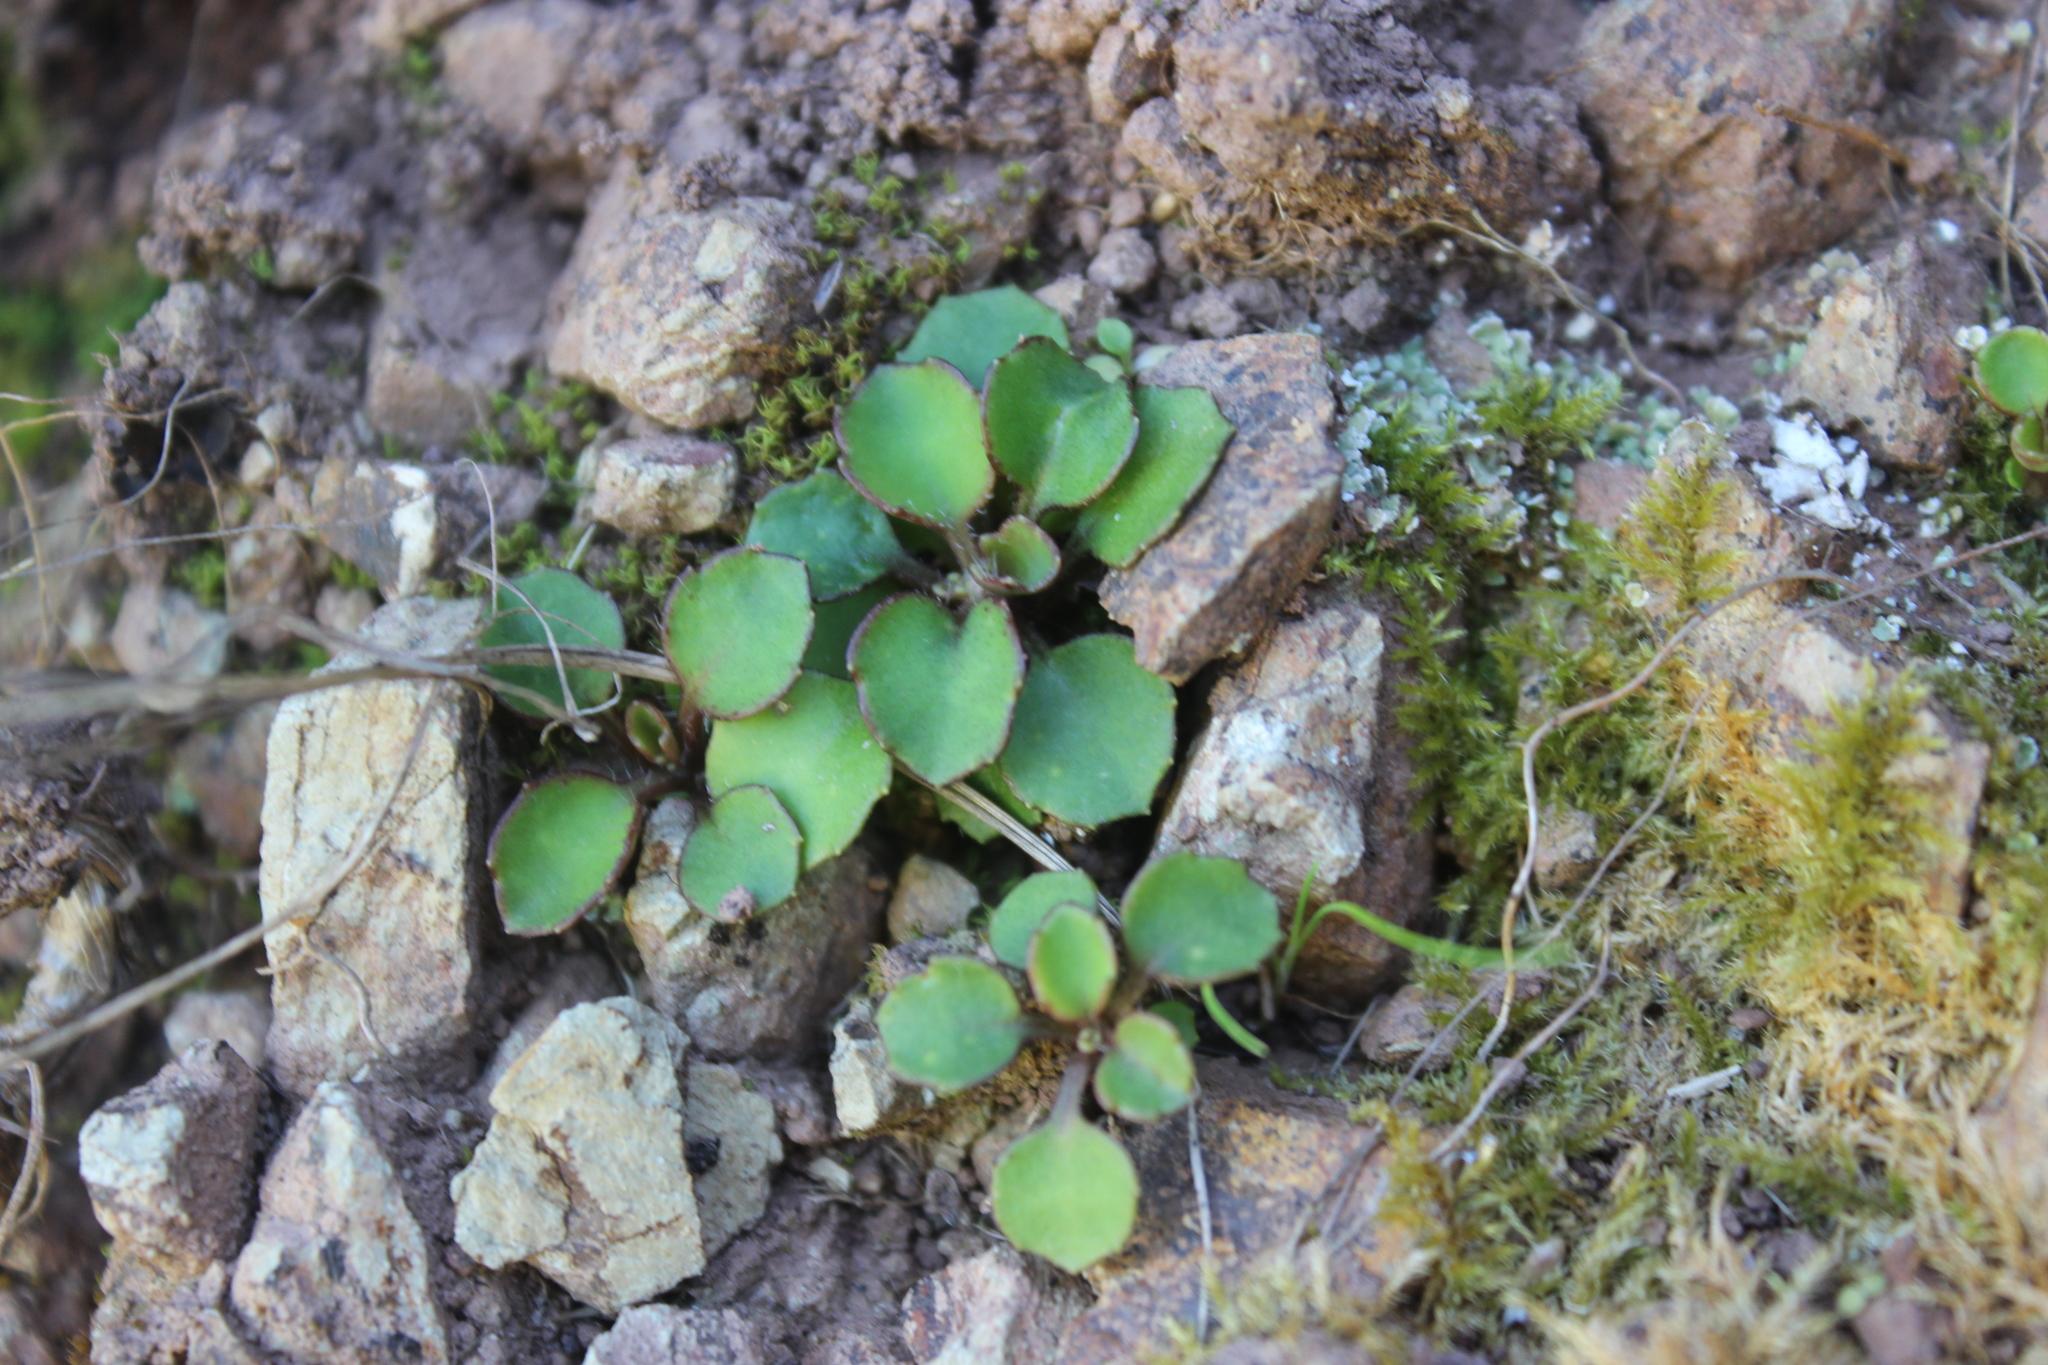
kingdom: Plantae
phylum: Tracheophyta
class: Magnoliopsida
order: Asterales
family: Asteraceae
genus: Lagenophora
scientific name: Lagenophora pumila
